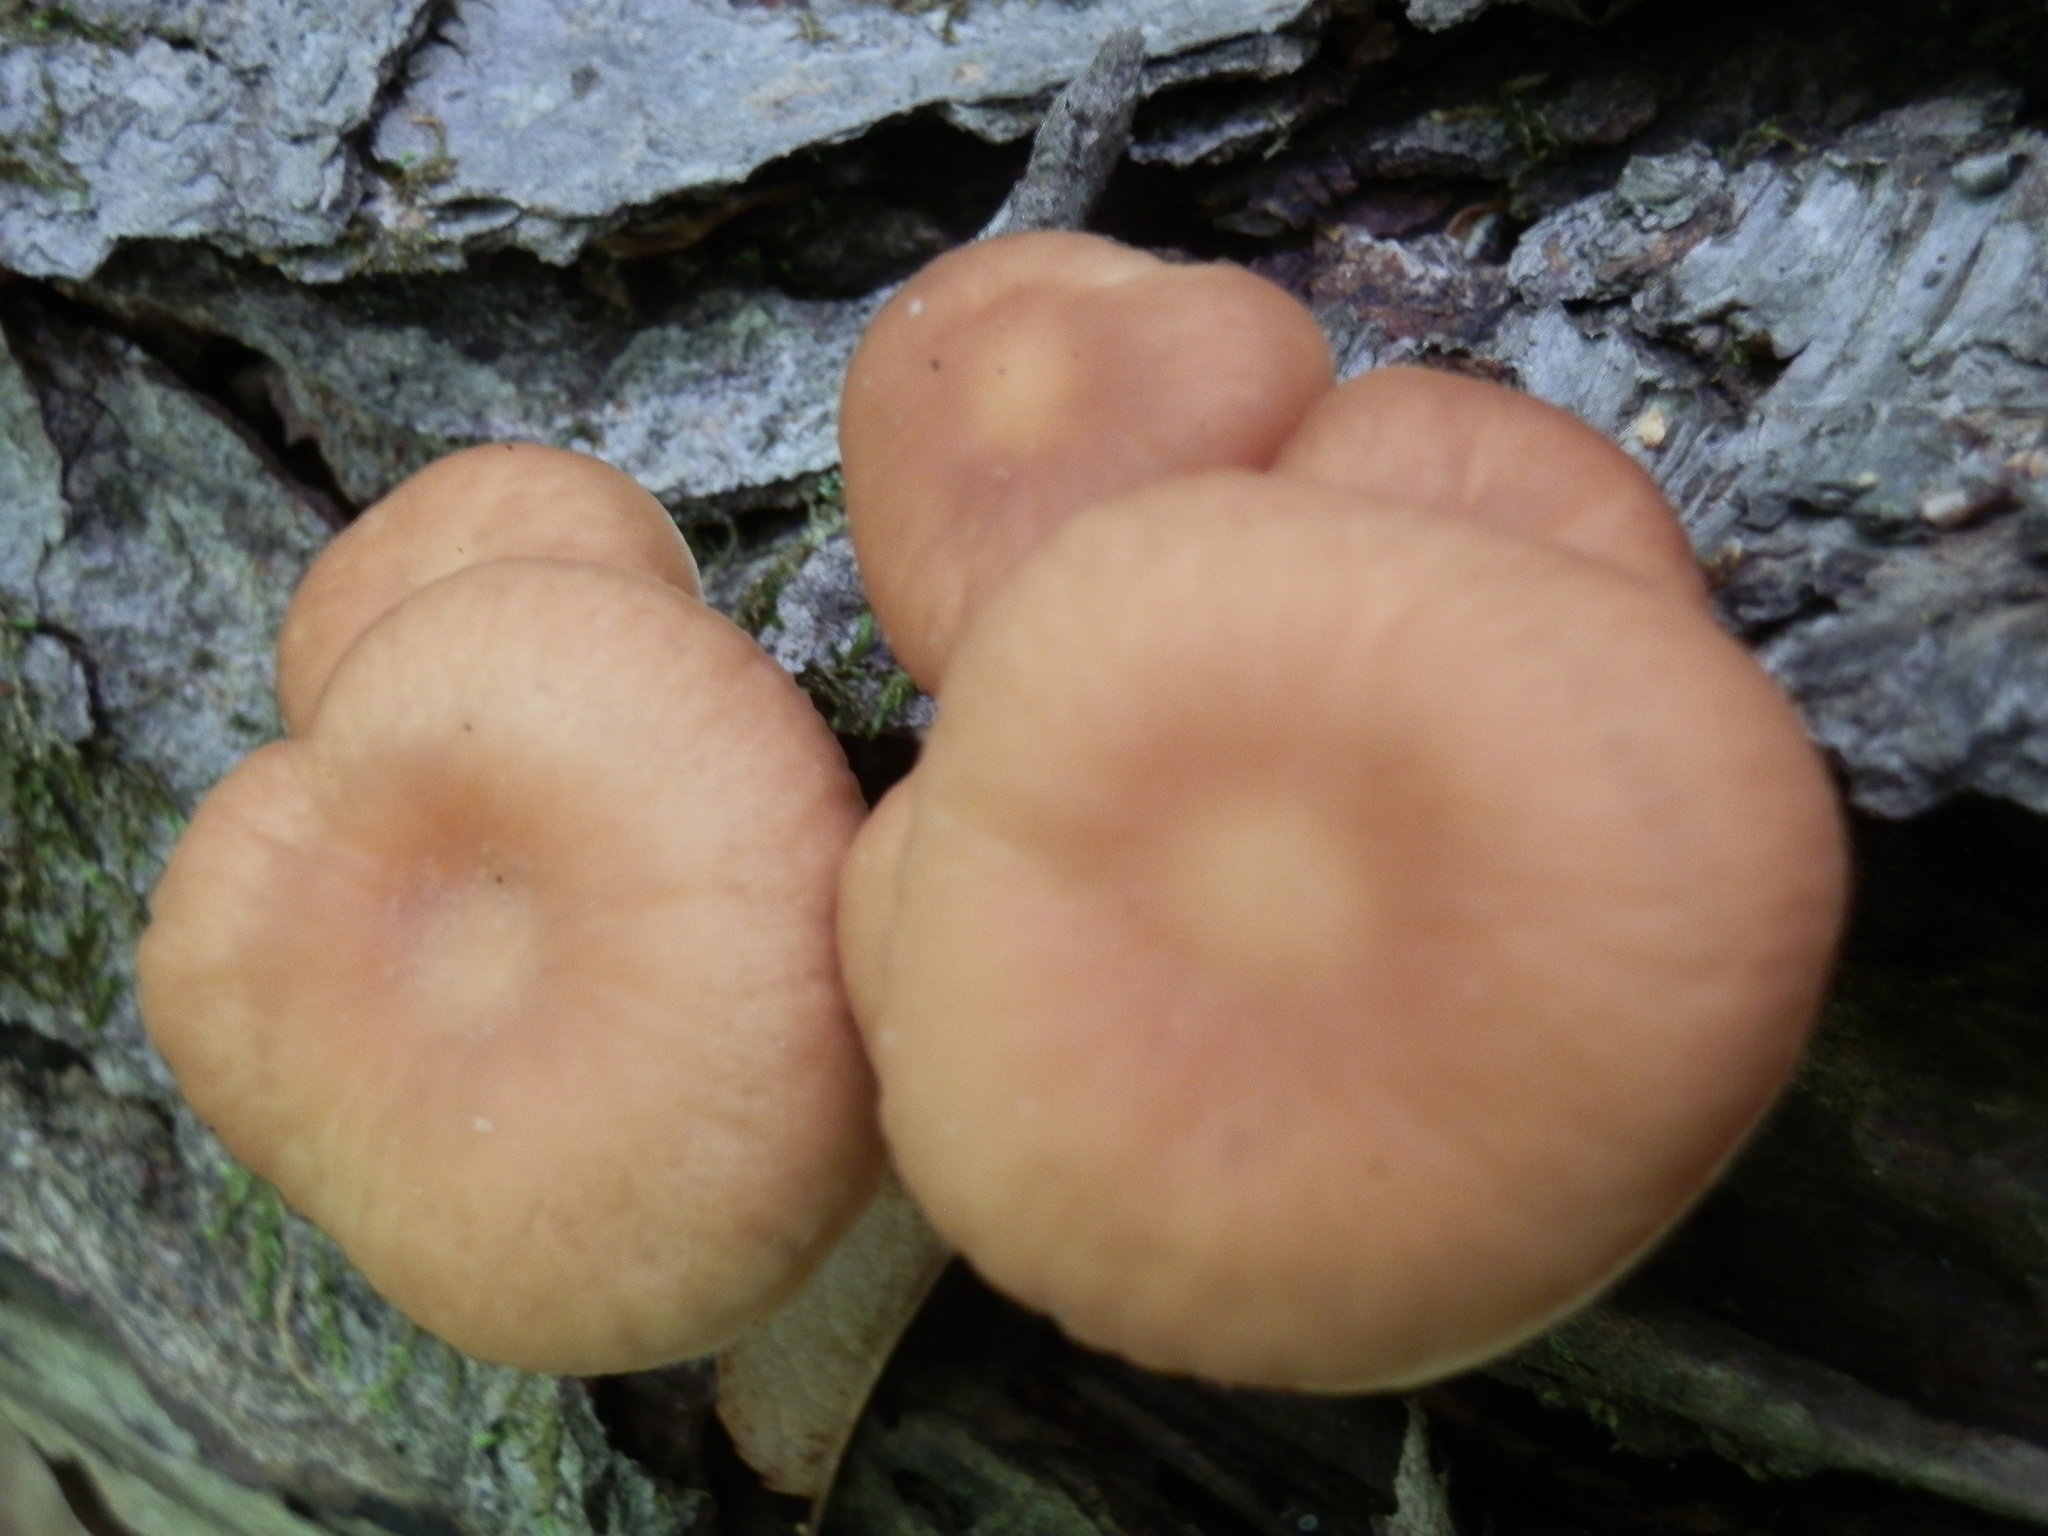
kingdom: Fungi
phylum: Basidiomycota
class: Agaricomycetes
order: Agaricales
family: Omphalotaceae
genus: Gymnopus
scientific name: Gymnopus earleae
